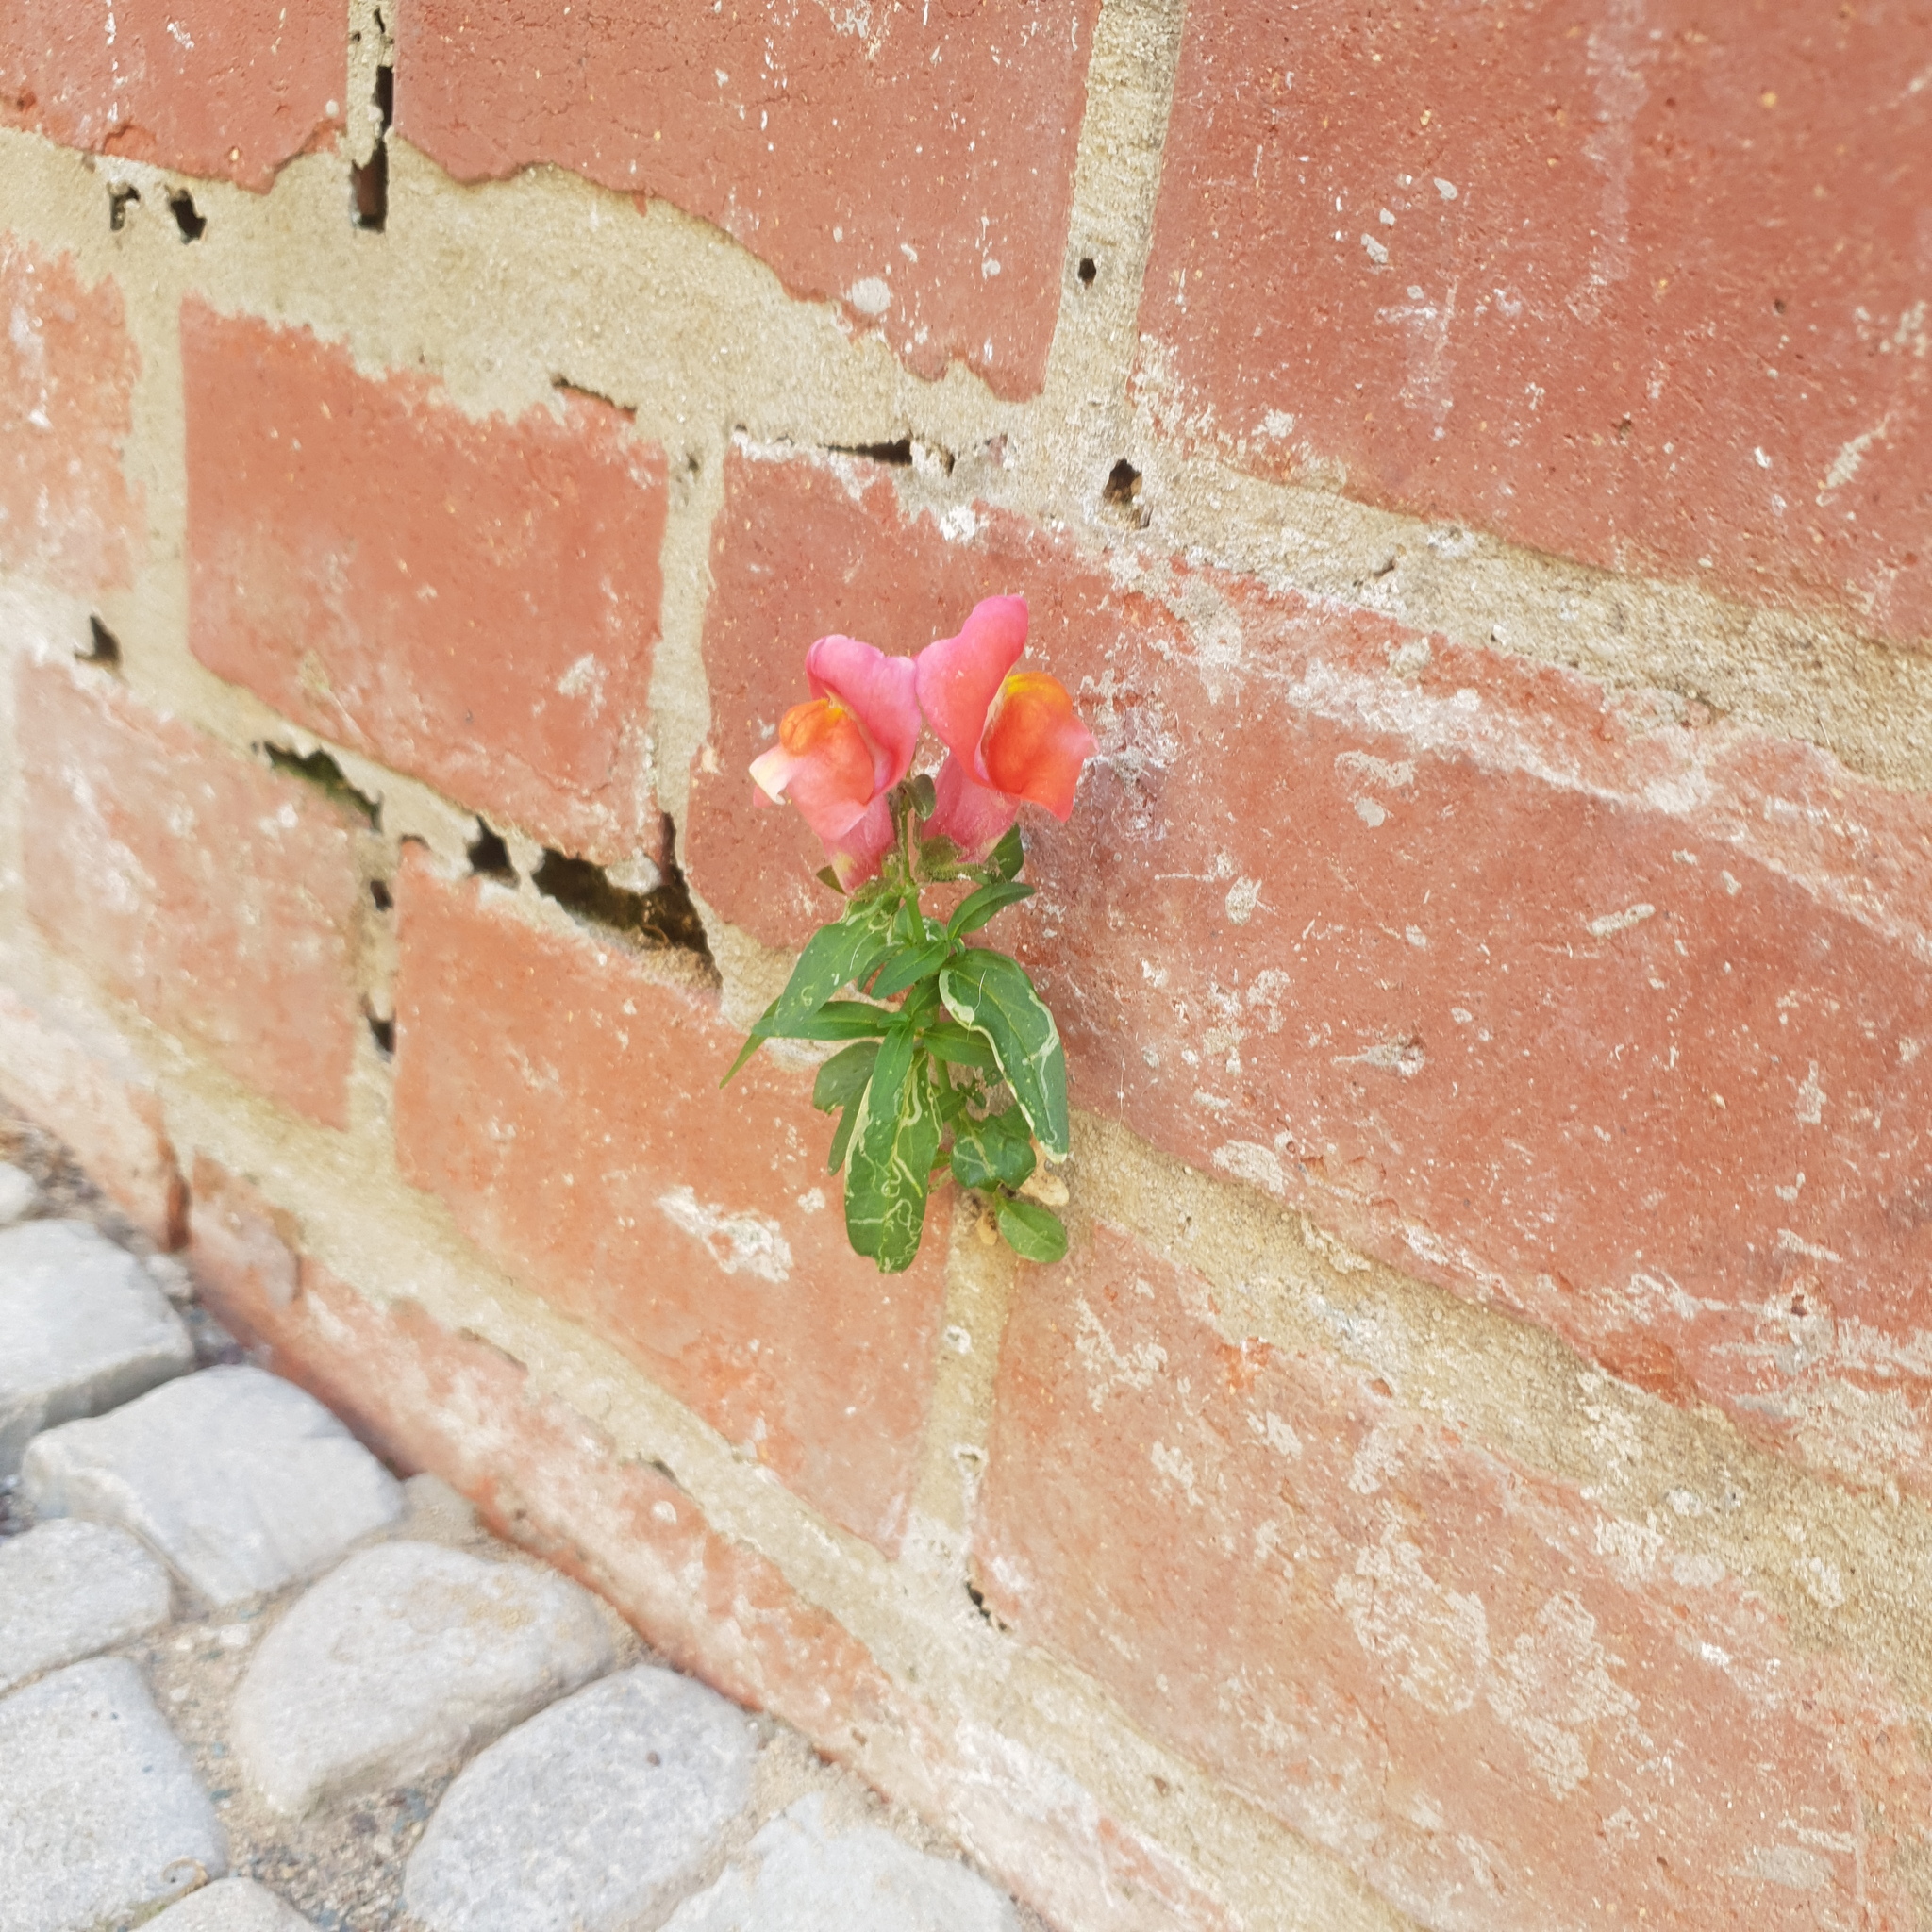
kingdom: Plantae
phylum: Tracheophyta
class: Magnoliopsida
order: Lamiales
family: Plantaginaceae
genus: Antirrhinum
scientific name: Antirrhinum majus
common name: Snapdragon
